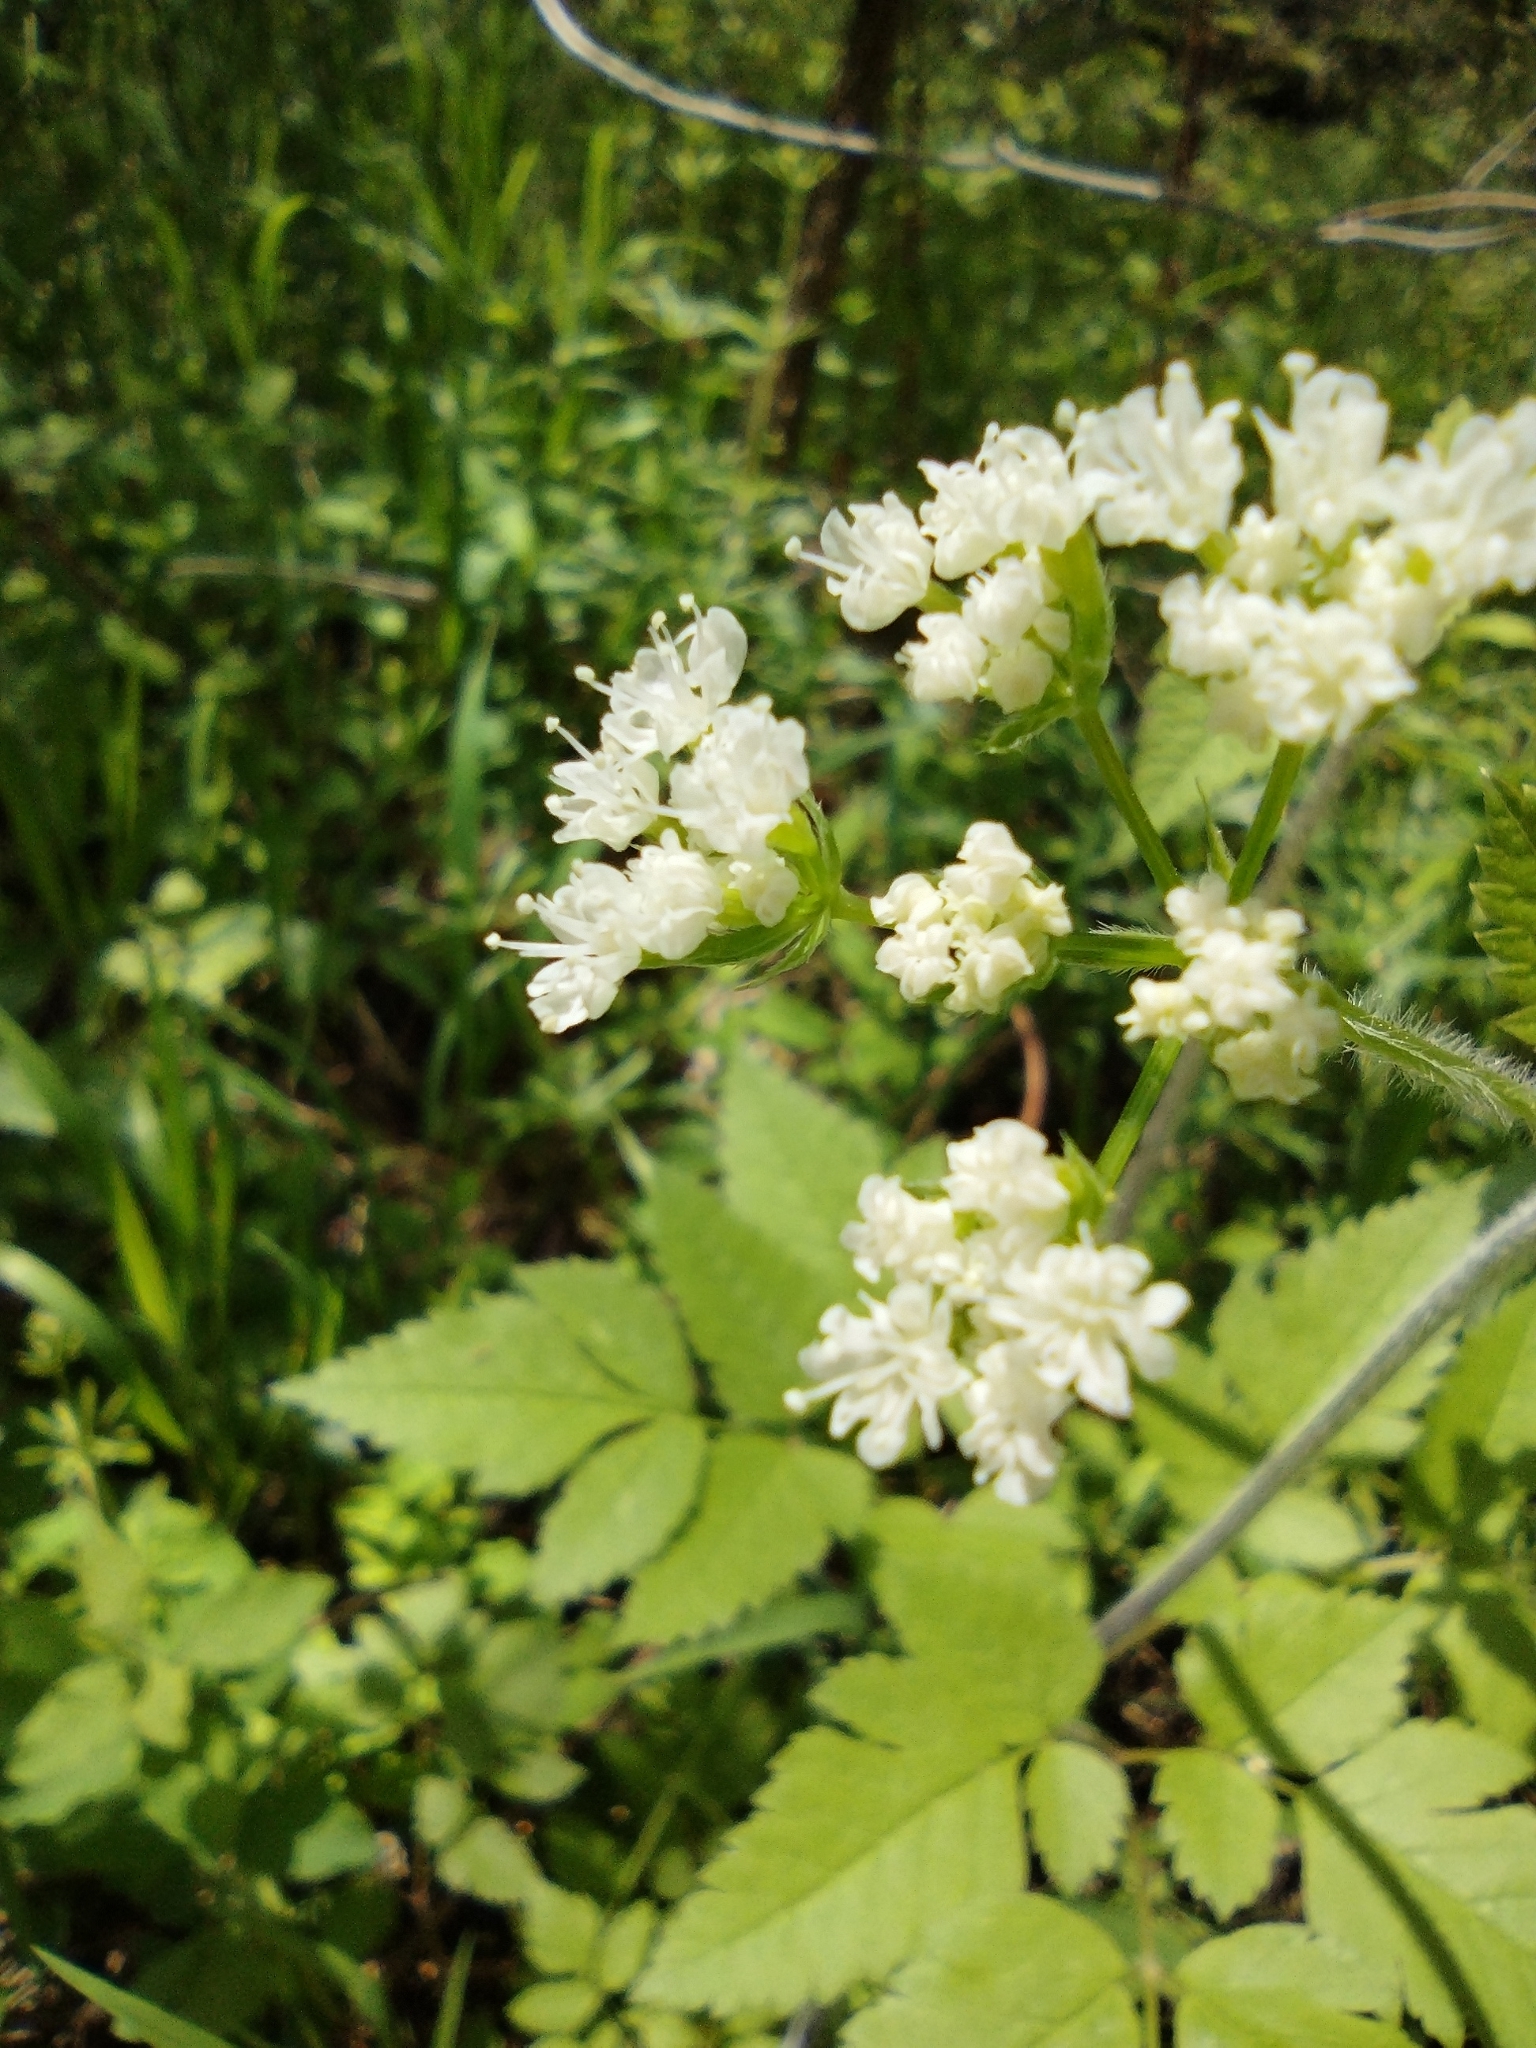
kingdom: Plantae
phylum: Tracheophyta
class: Magnoliopsida
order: Apiales
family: Apiaceae
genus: Osmorhiza
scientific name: Osmorhiza longistylis
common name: Smooth sweet cicely
